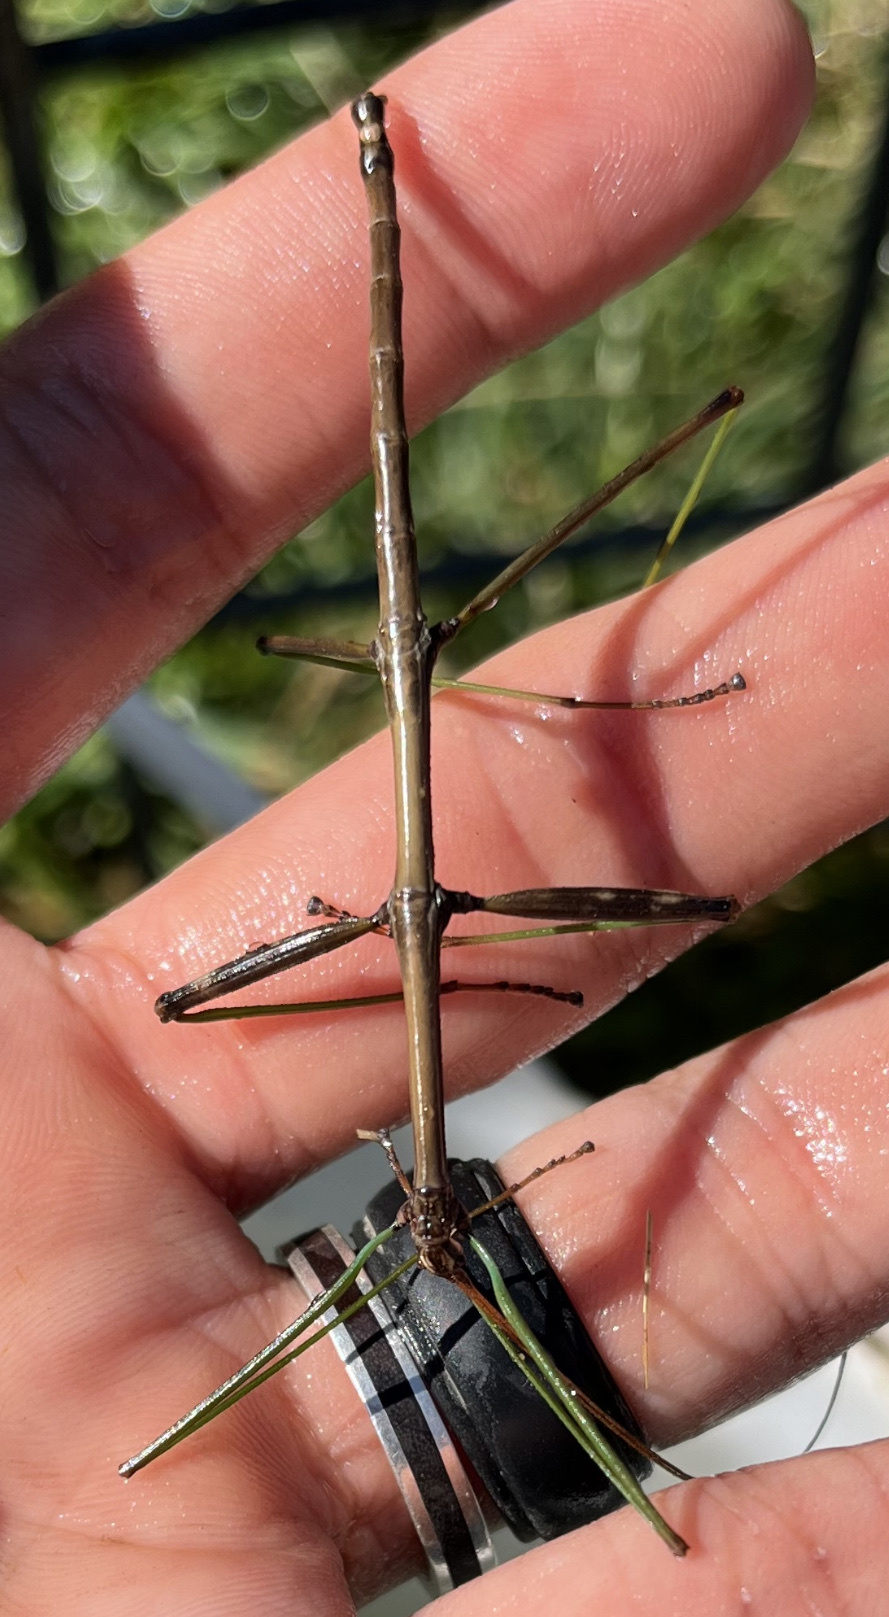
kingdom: Animalia
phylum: Arthropoda
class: Insecta
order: Phasmida
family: Diapheromeridae
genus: Diapheromera
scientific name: Diapheromera femorata
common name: Common american walkingstick
